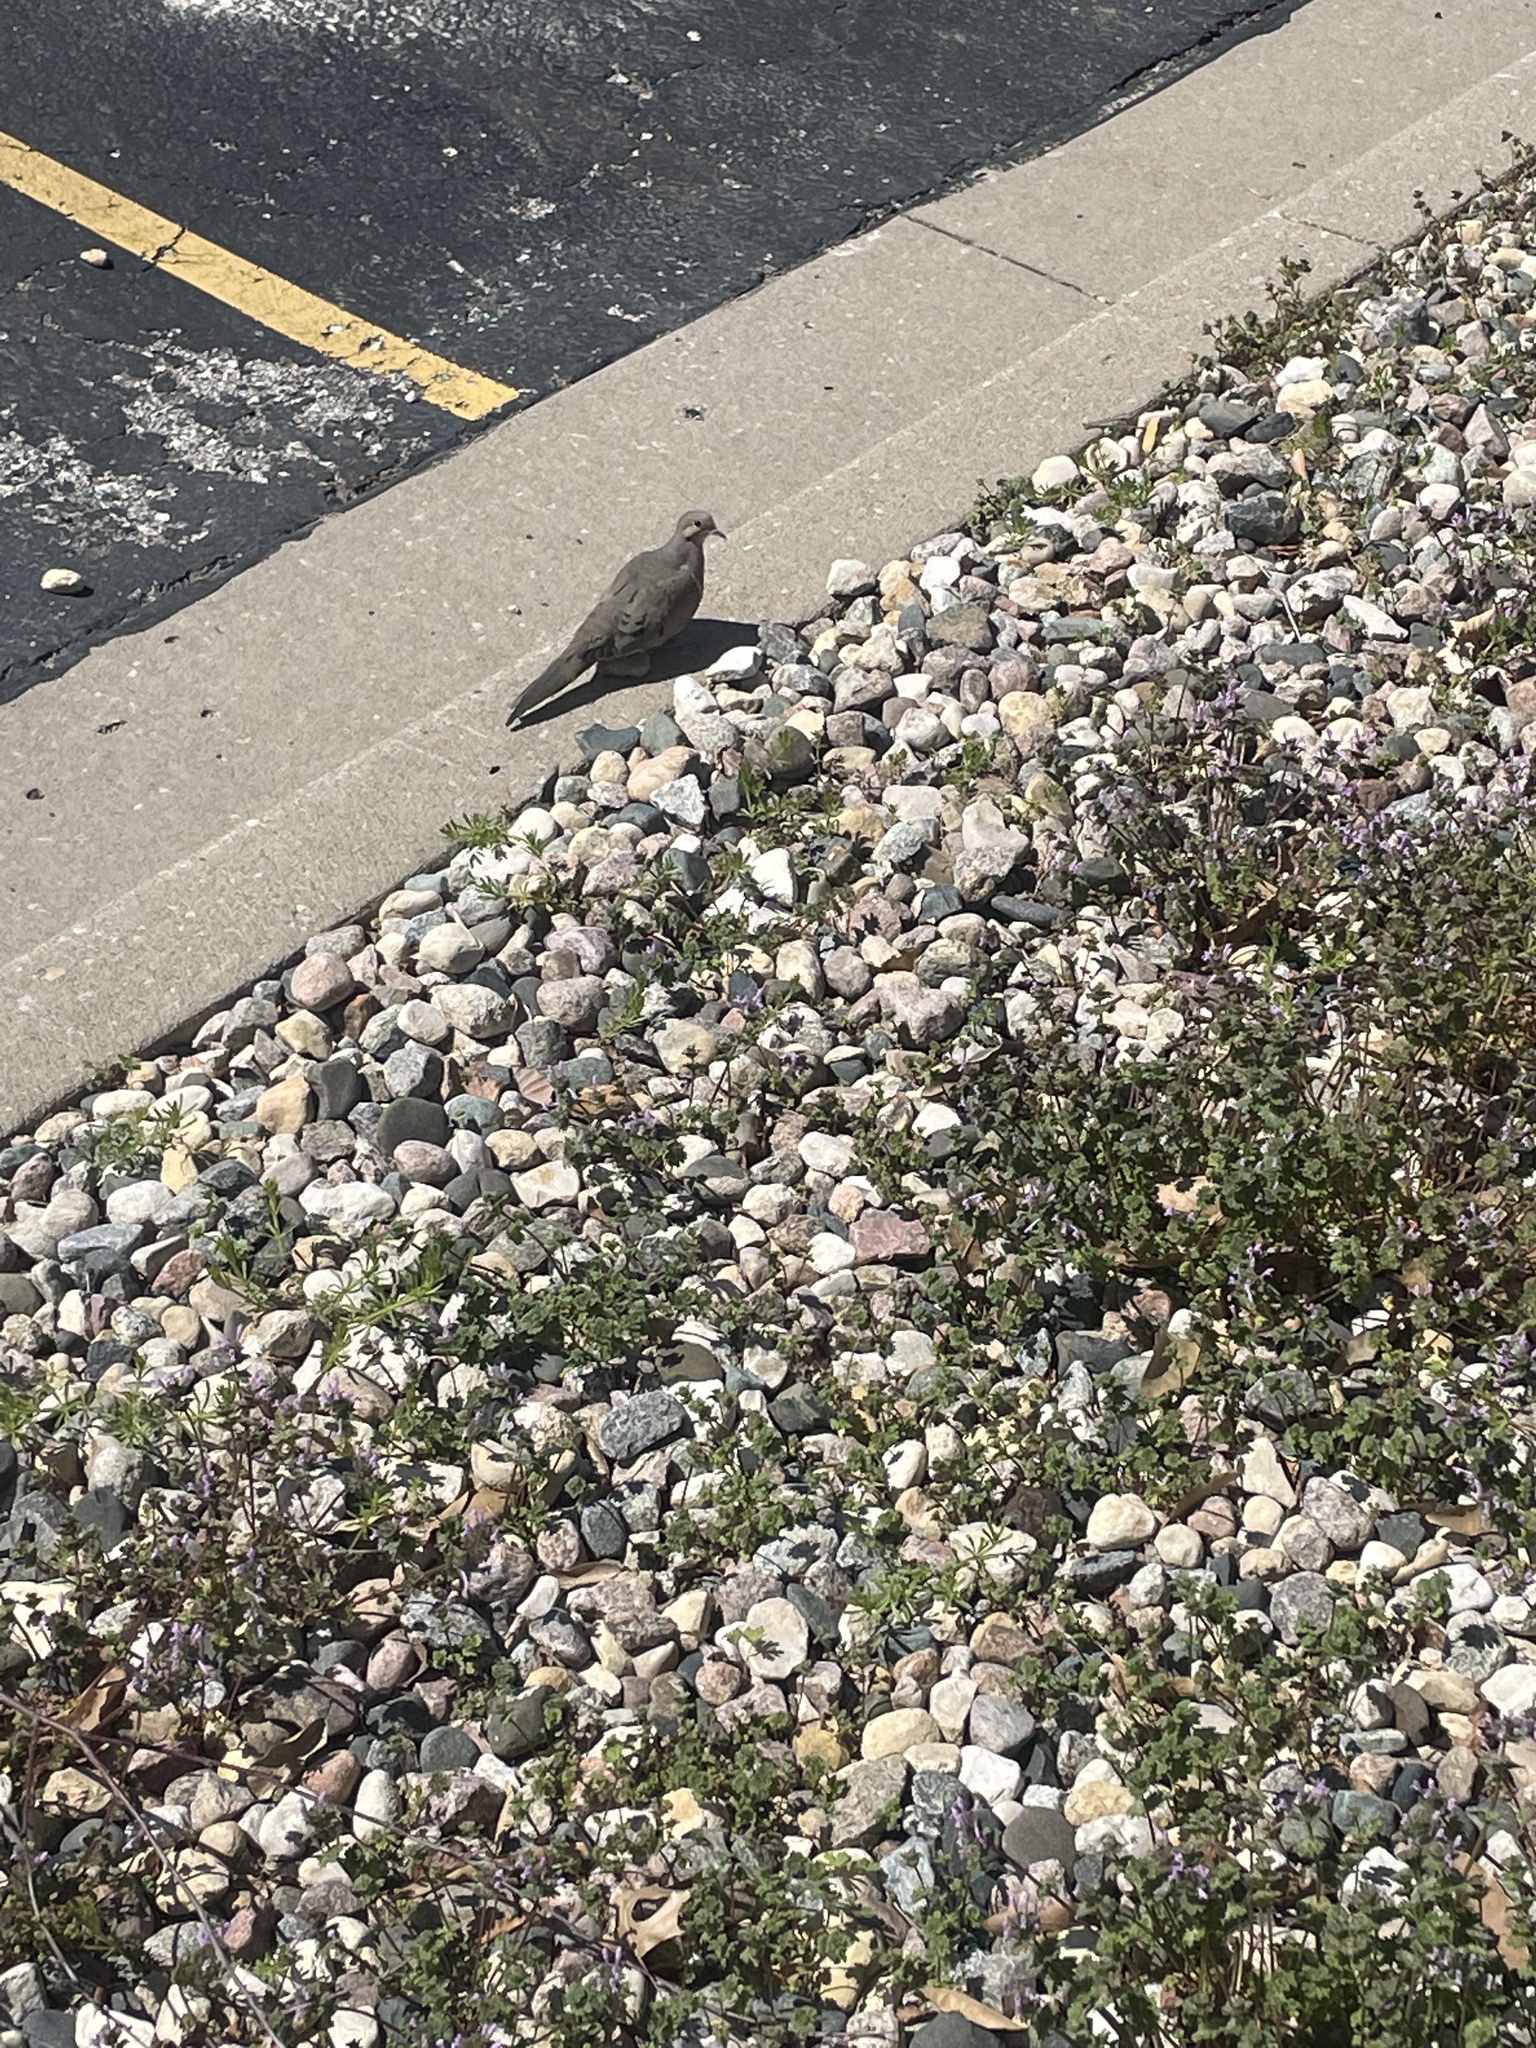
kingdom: Animalia
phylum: Chordata
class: Aves
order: Columbiformes
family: Columbidae
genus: Zenaida
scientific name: Zenaida macroura
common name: Mourning dove
